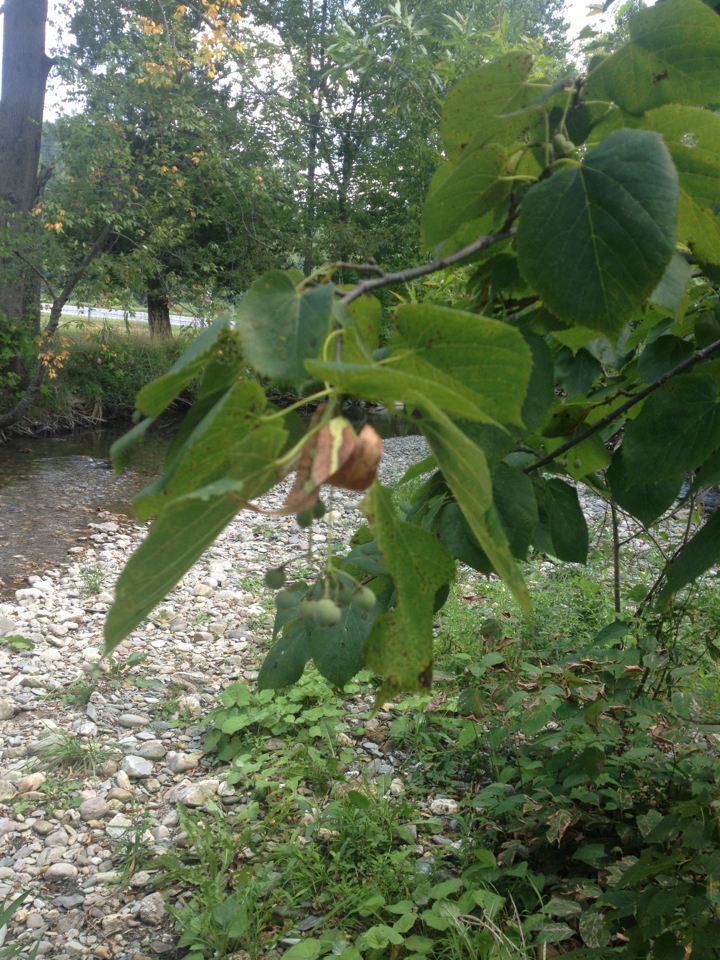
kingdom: Plantae
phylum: Tracheophyta
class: Magnoliopsida
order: Malvales
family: Malvaceae
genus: Tilia
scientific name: Tilia americana
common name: Basswood
